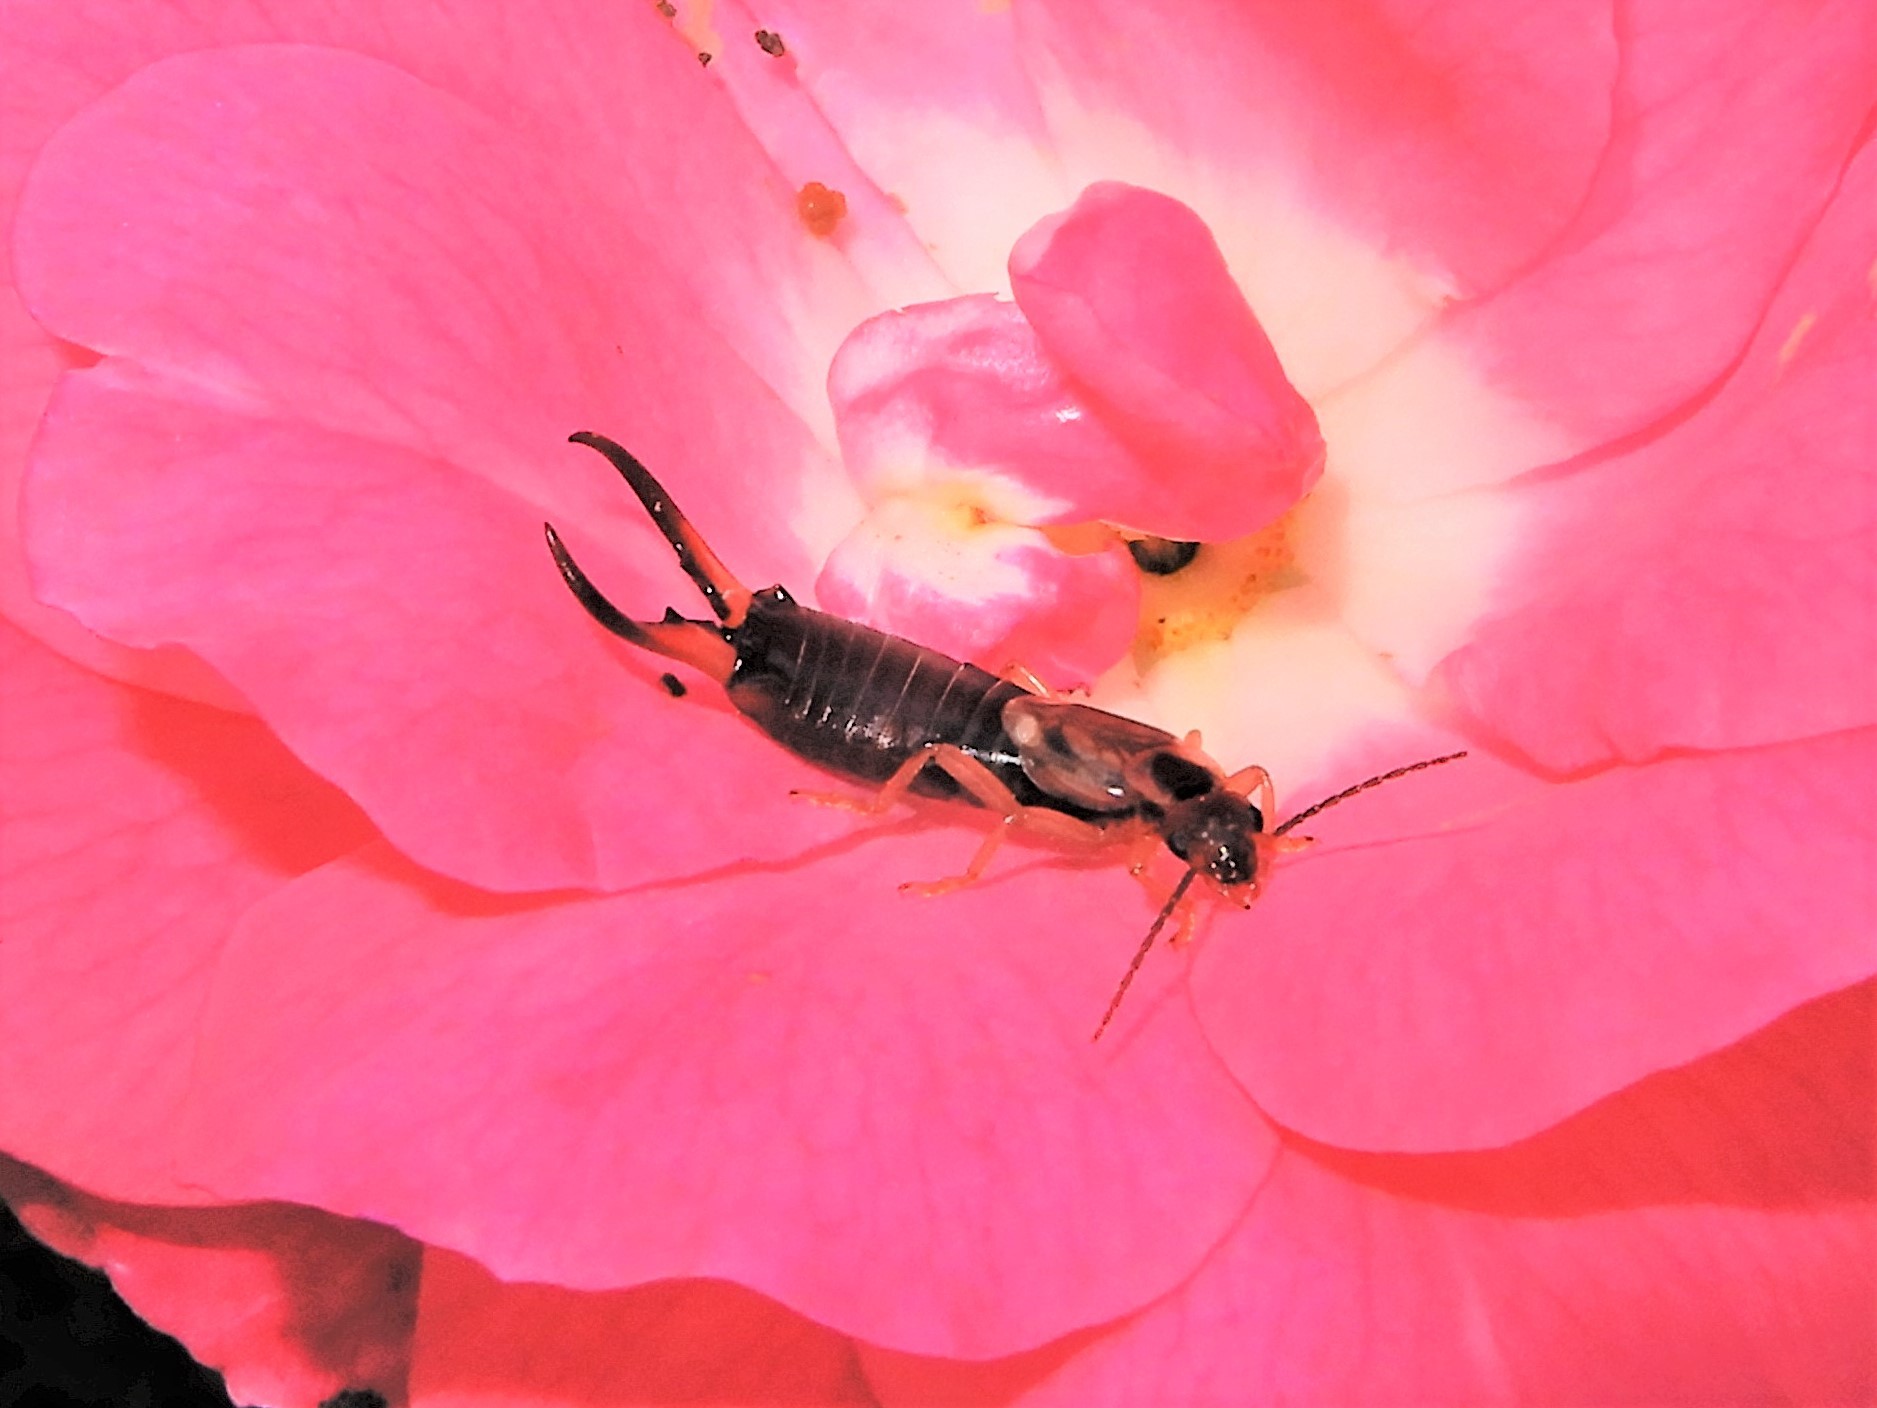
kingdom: Animalia
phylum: Arthropoda
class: Insecta
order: Dermaptera
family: Forficulidae
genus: Forficula
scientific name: Forficula
